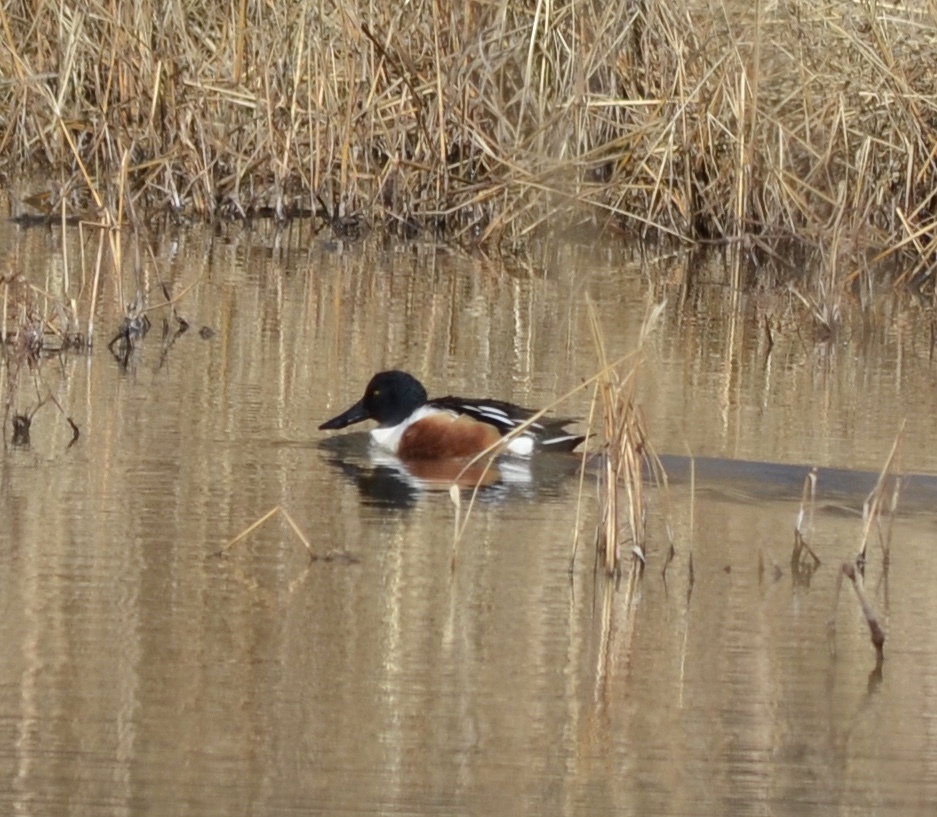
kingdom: Animalia
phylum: Chordata
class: Aves
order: Anseriformes
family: Anatidae
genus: Spatula
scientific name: Spatula clypeata
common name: Northern shoveler
